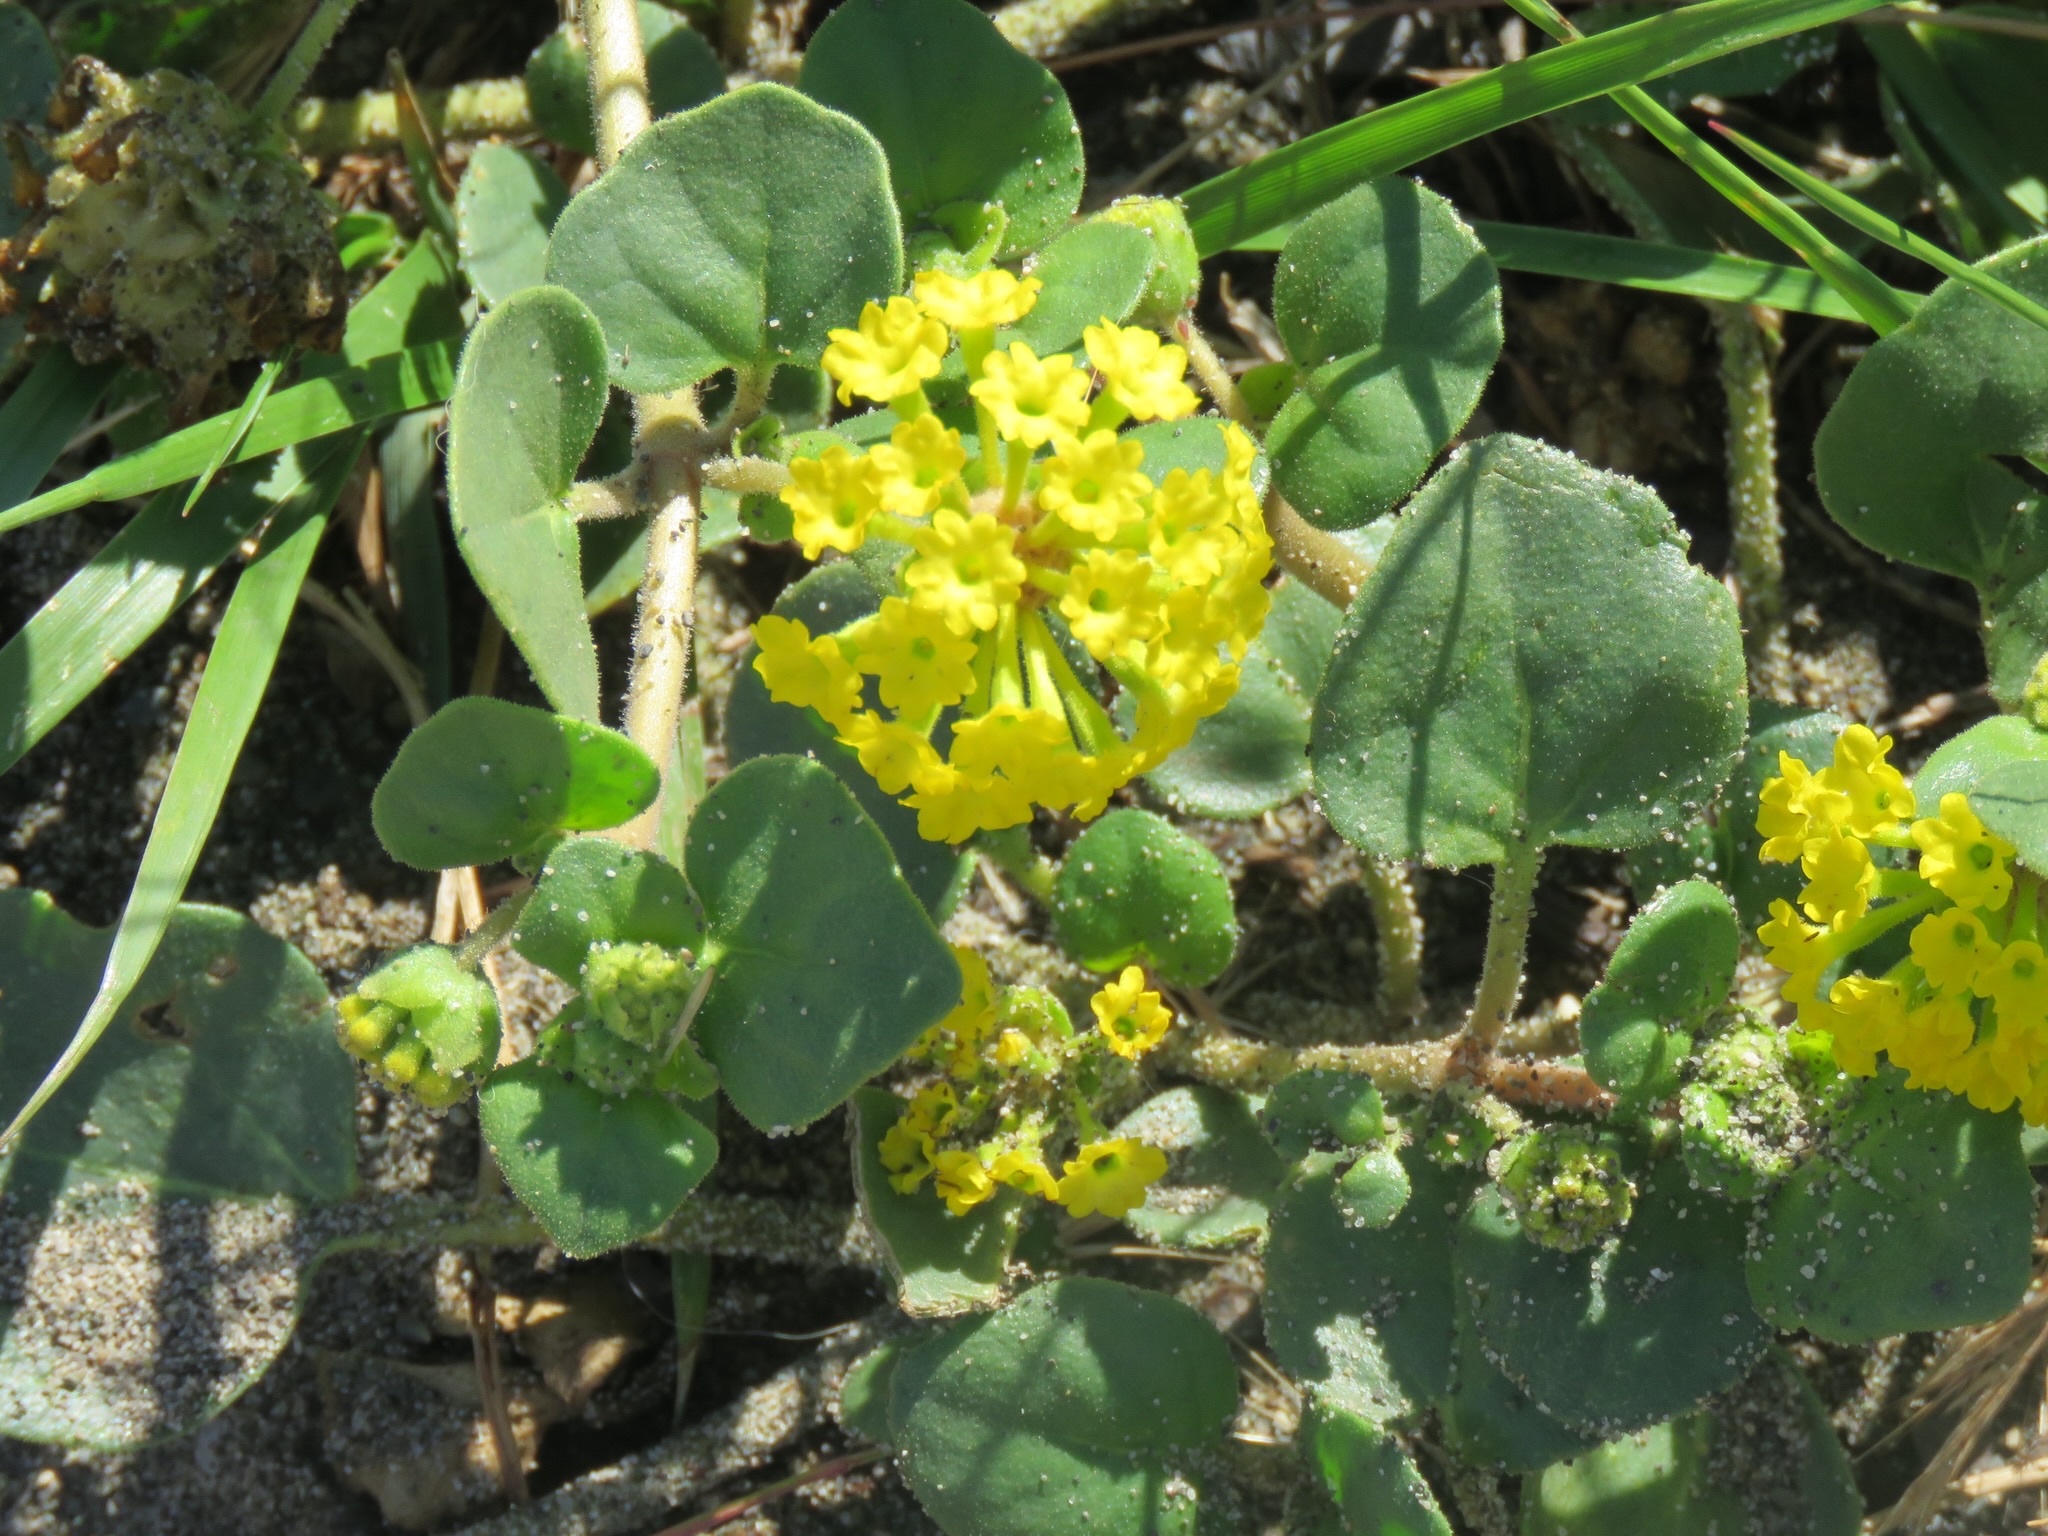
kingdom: Plantae
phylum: Tracheophyta
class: Magnoliopsida
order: Caryophyllales
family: Nyctaginaceae
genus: Abronia
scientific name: Abronia latifolia
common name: Yellow sand-verbena
